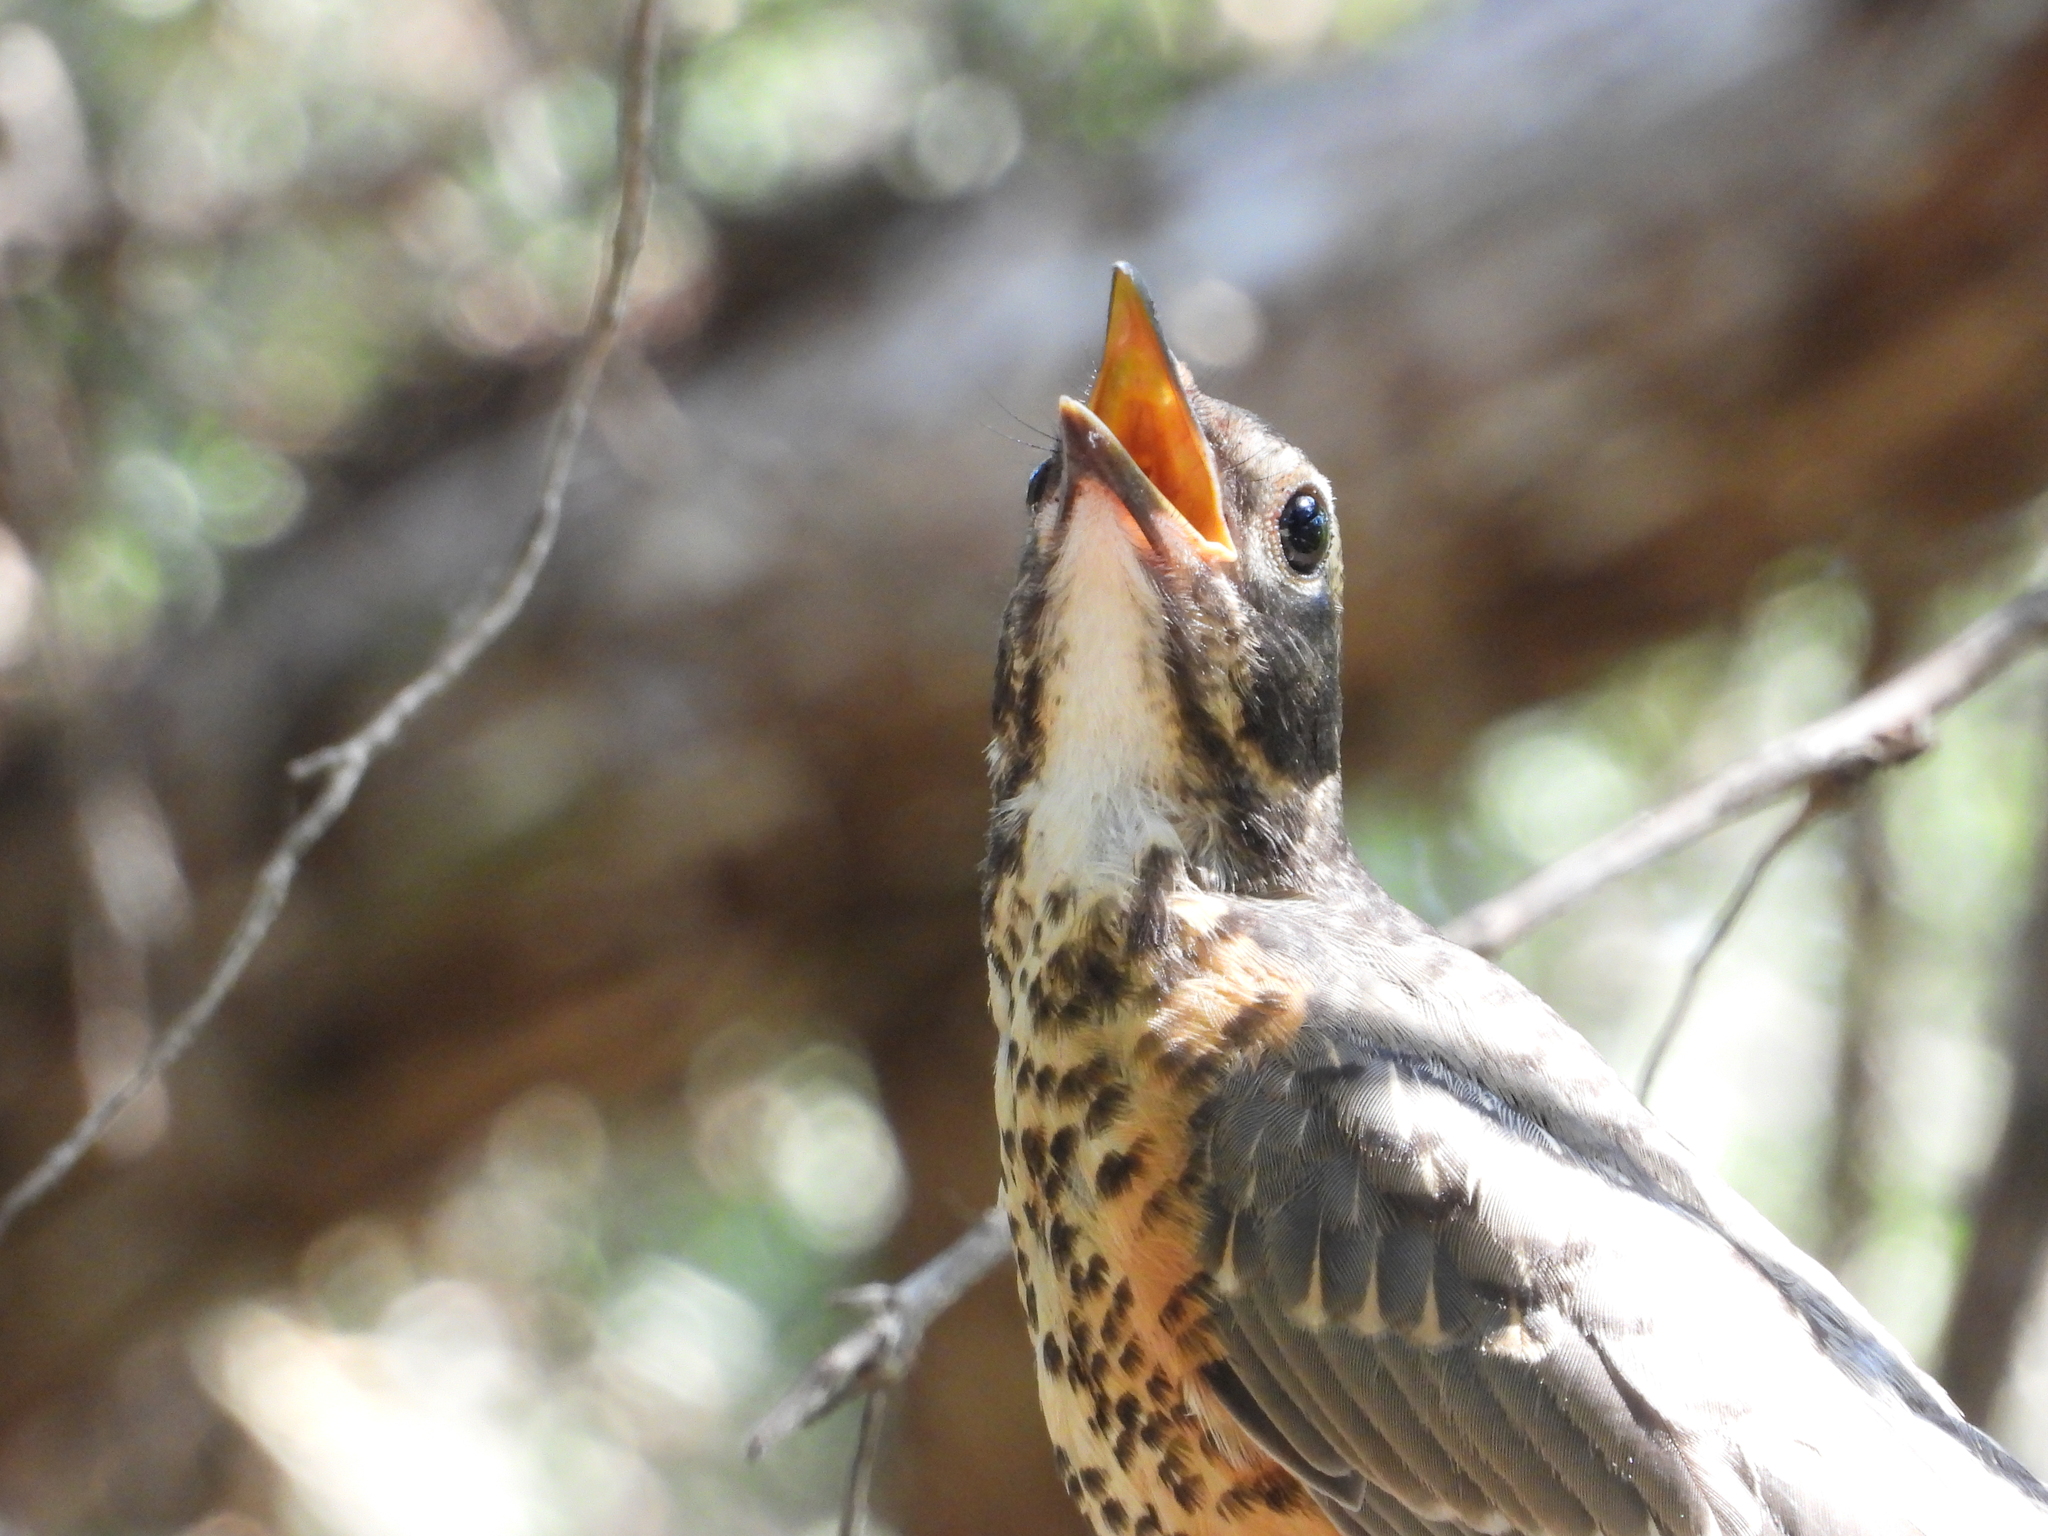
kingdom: Animalia
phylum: Chordata
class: Aves
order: Passeriformes
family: Turdidae
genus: Turdus
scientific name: Turdus migratorius
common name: American robin
